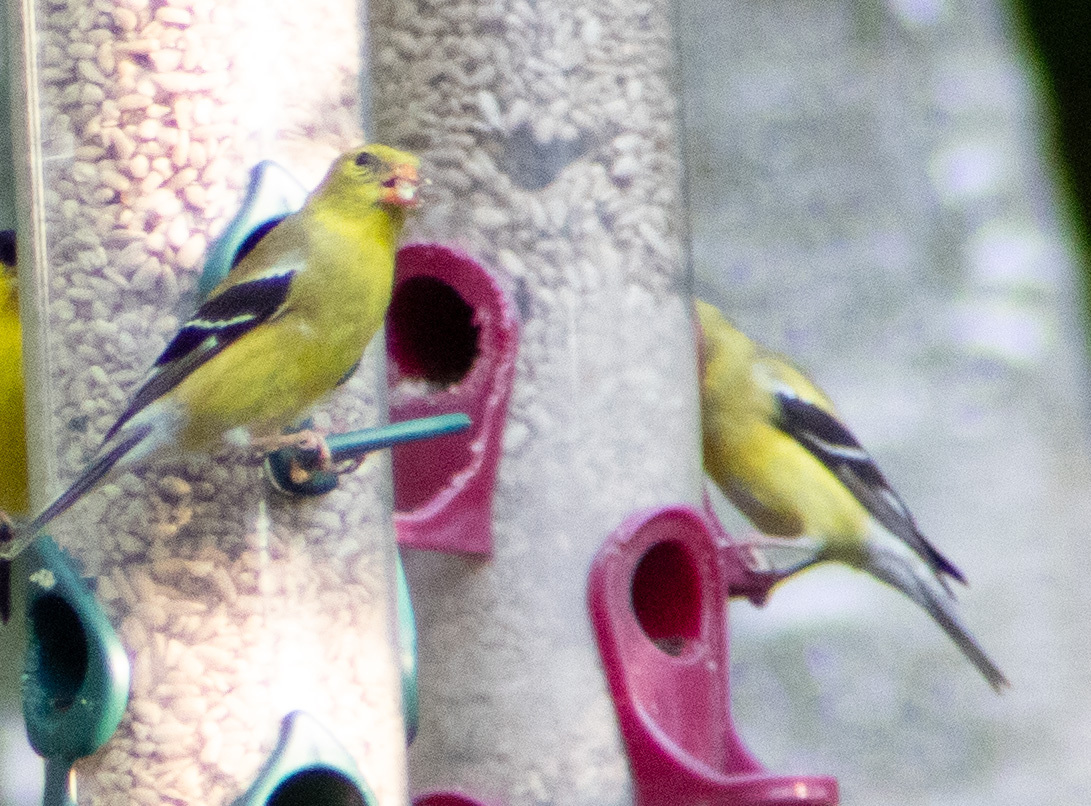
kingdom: Animalia
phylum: Chordata
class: Aves
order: Passeriformes
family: Fringillidae
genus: Spinus
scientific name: Spinus tristis
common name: American goldfinch
